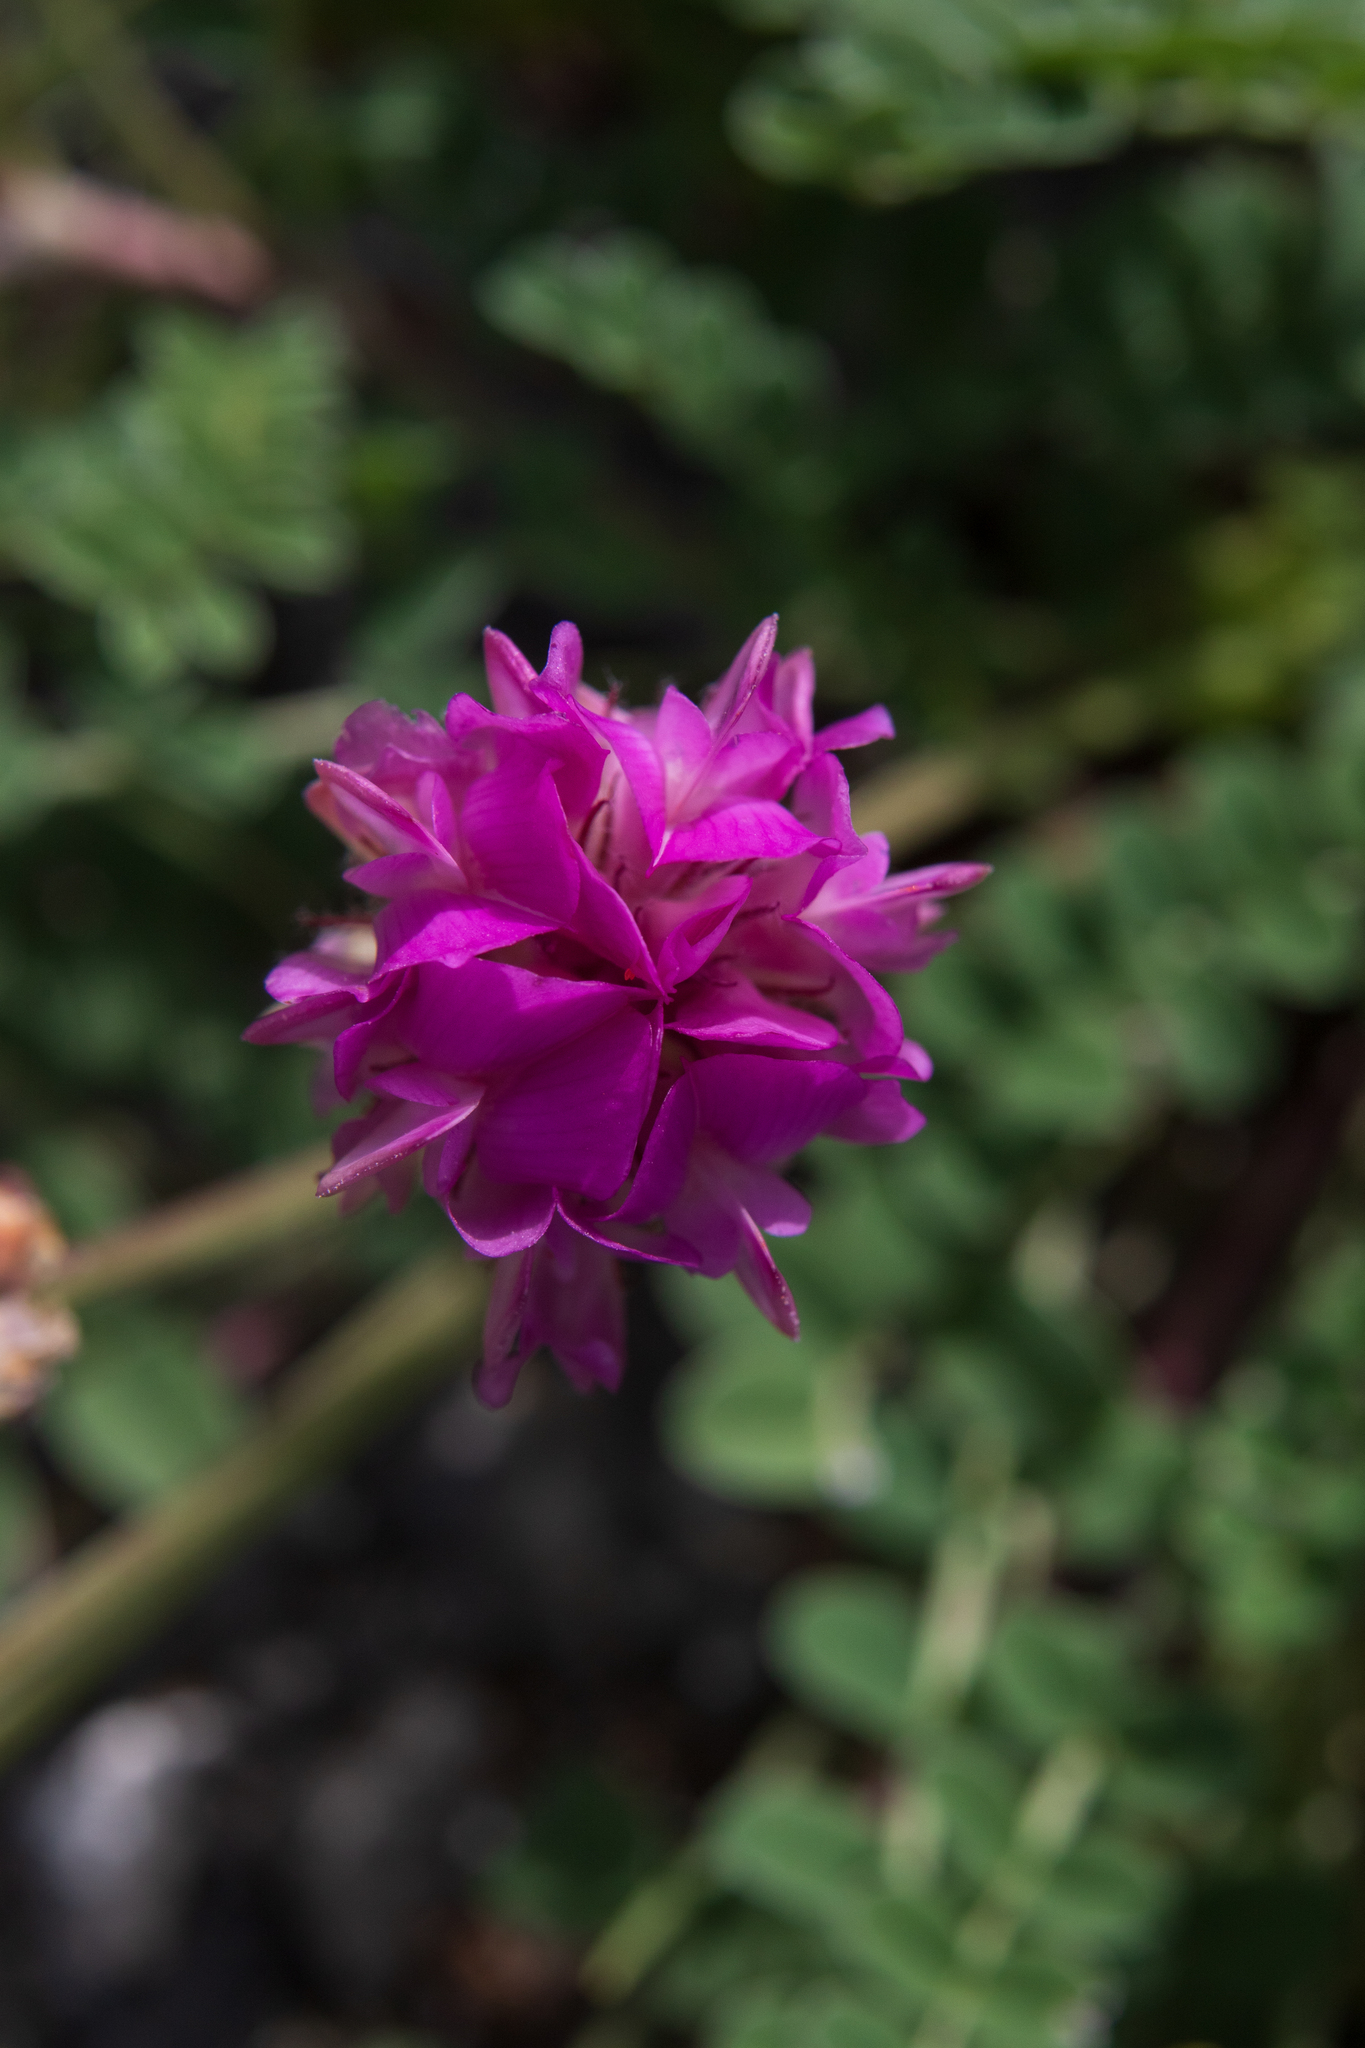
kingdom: Plantae
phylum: Tracheophyta
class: Magnoliopsida
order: Fabales
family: Fabaceae
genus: Hedysarum
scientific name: Hedysarum gmelinii
